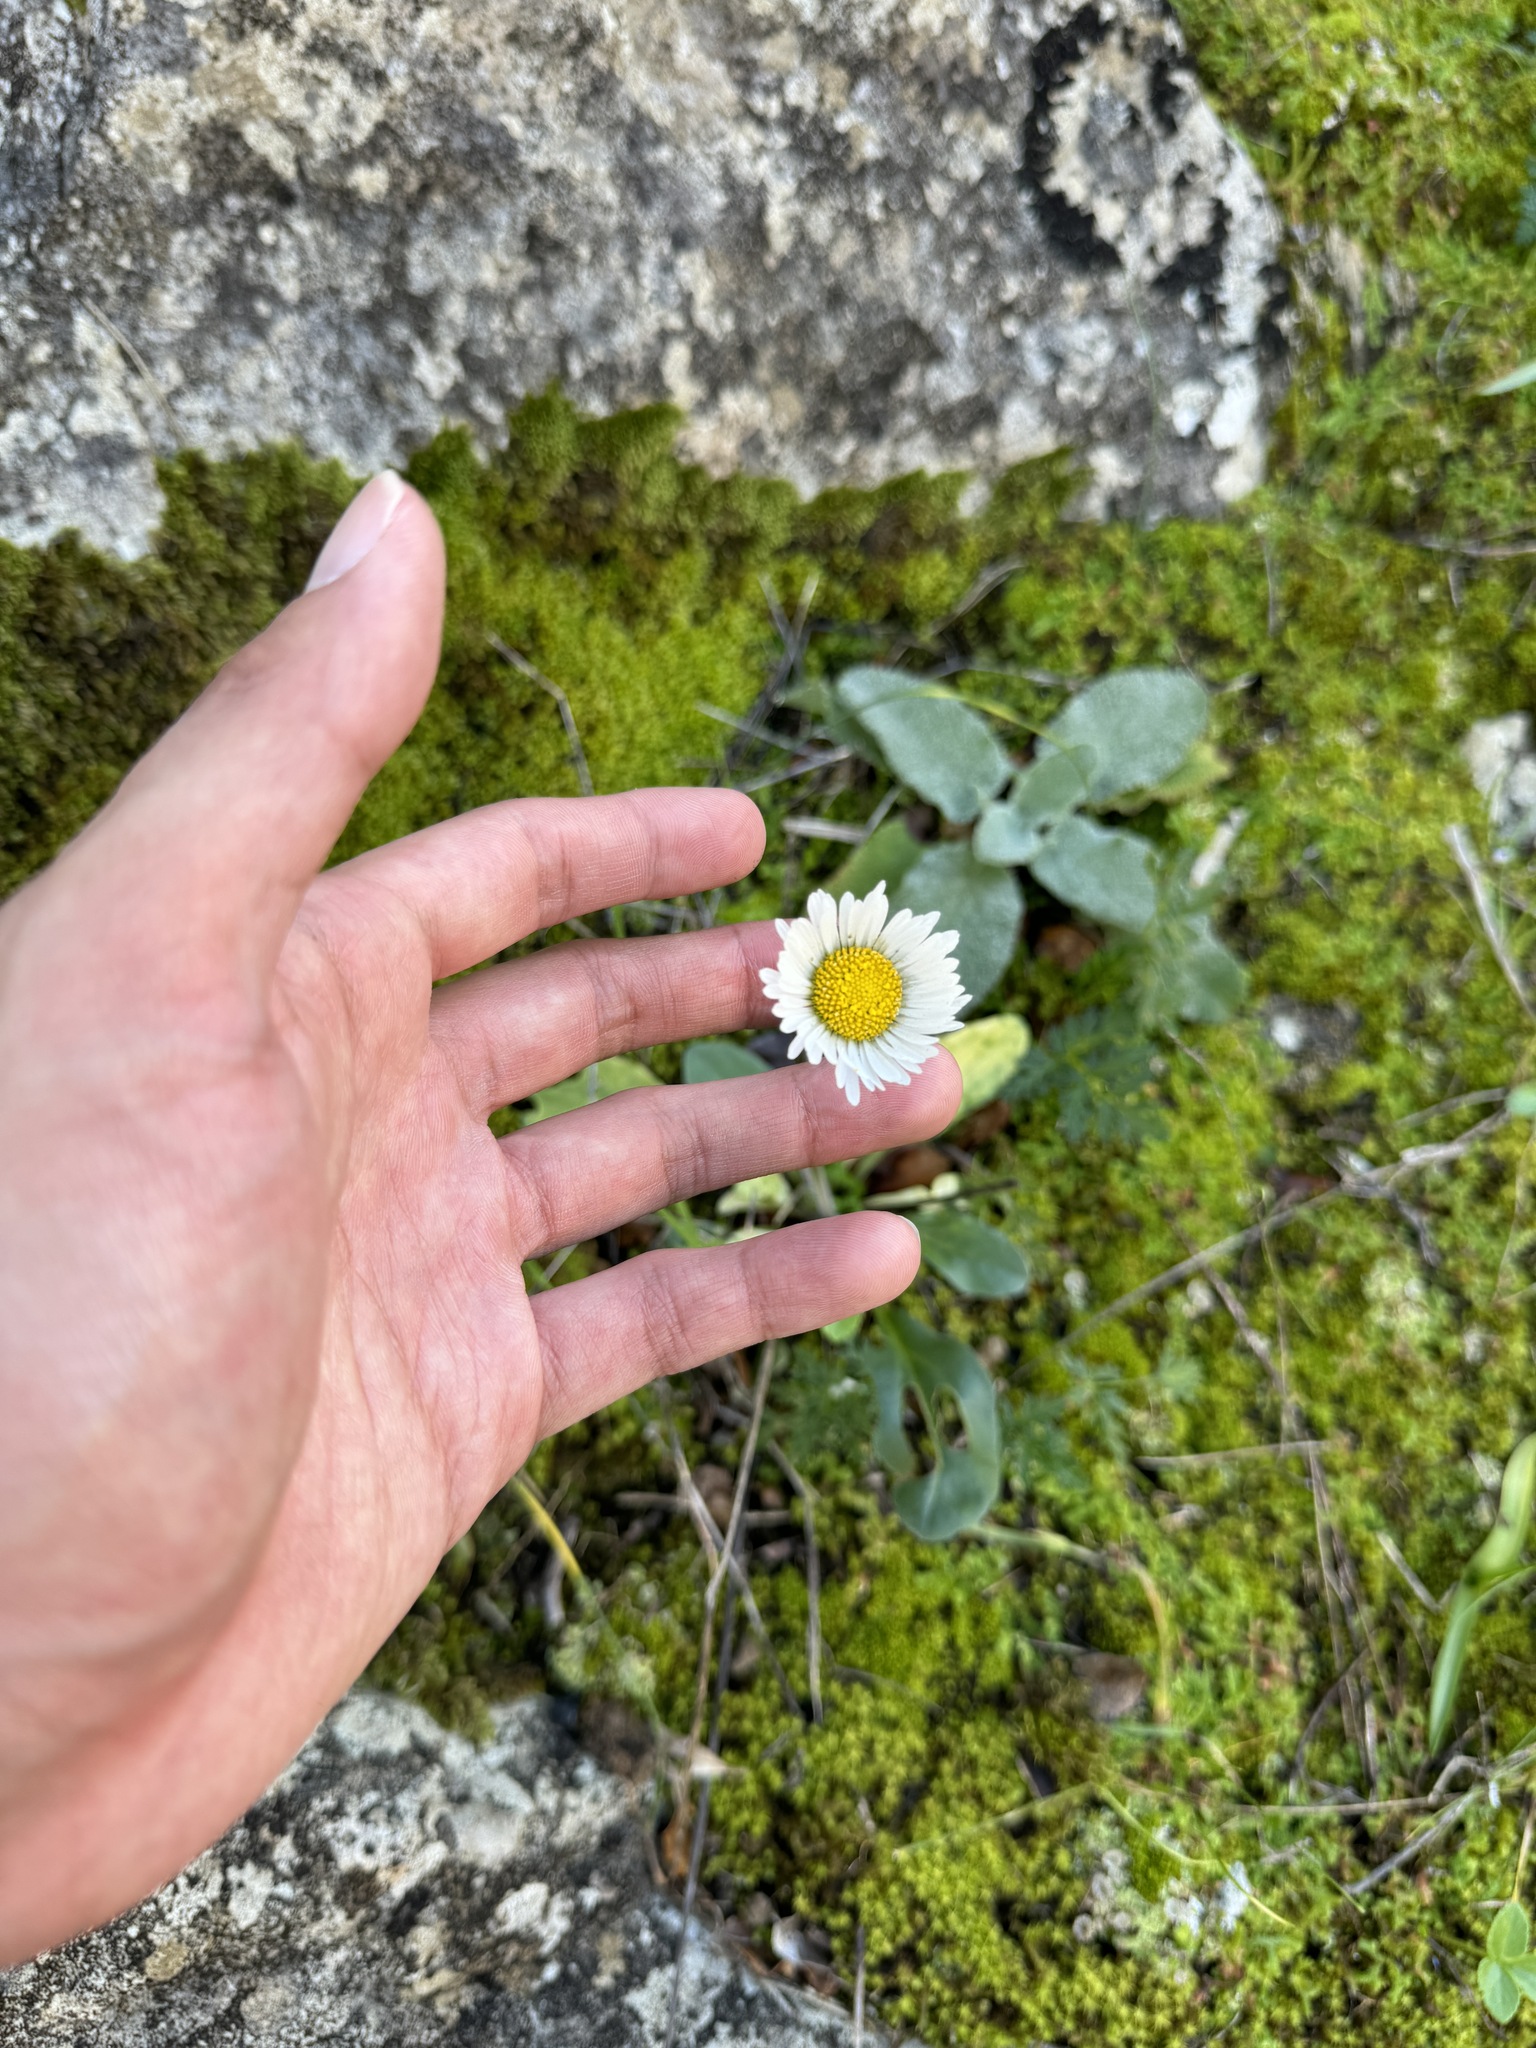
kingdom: Plantae
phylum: Tracheophyta
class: Magnoliopsida
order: Asterales
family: Asteraceae
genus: Bellis
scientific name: Bellis sylvestris
